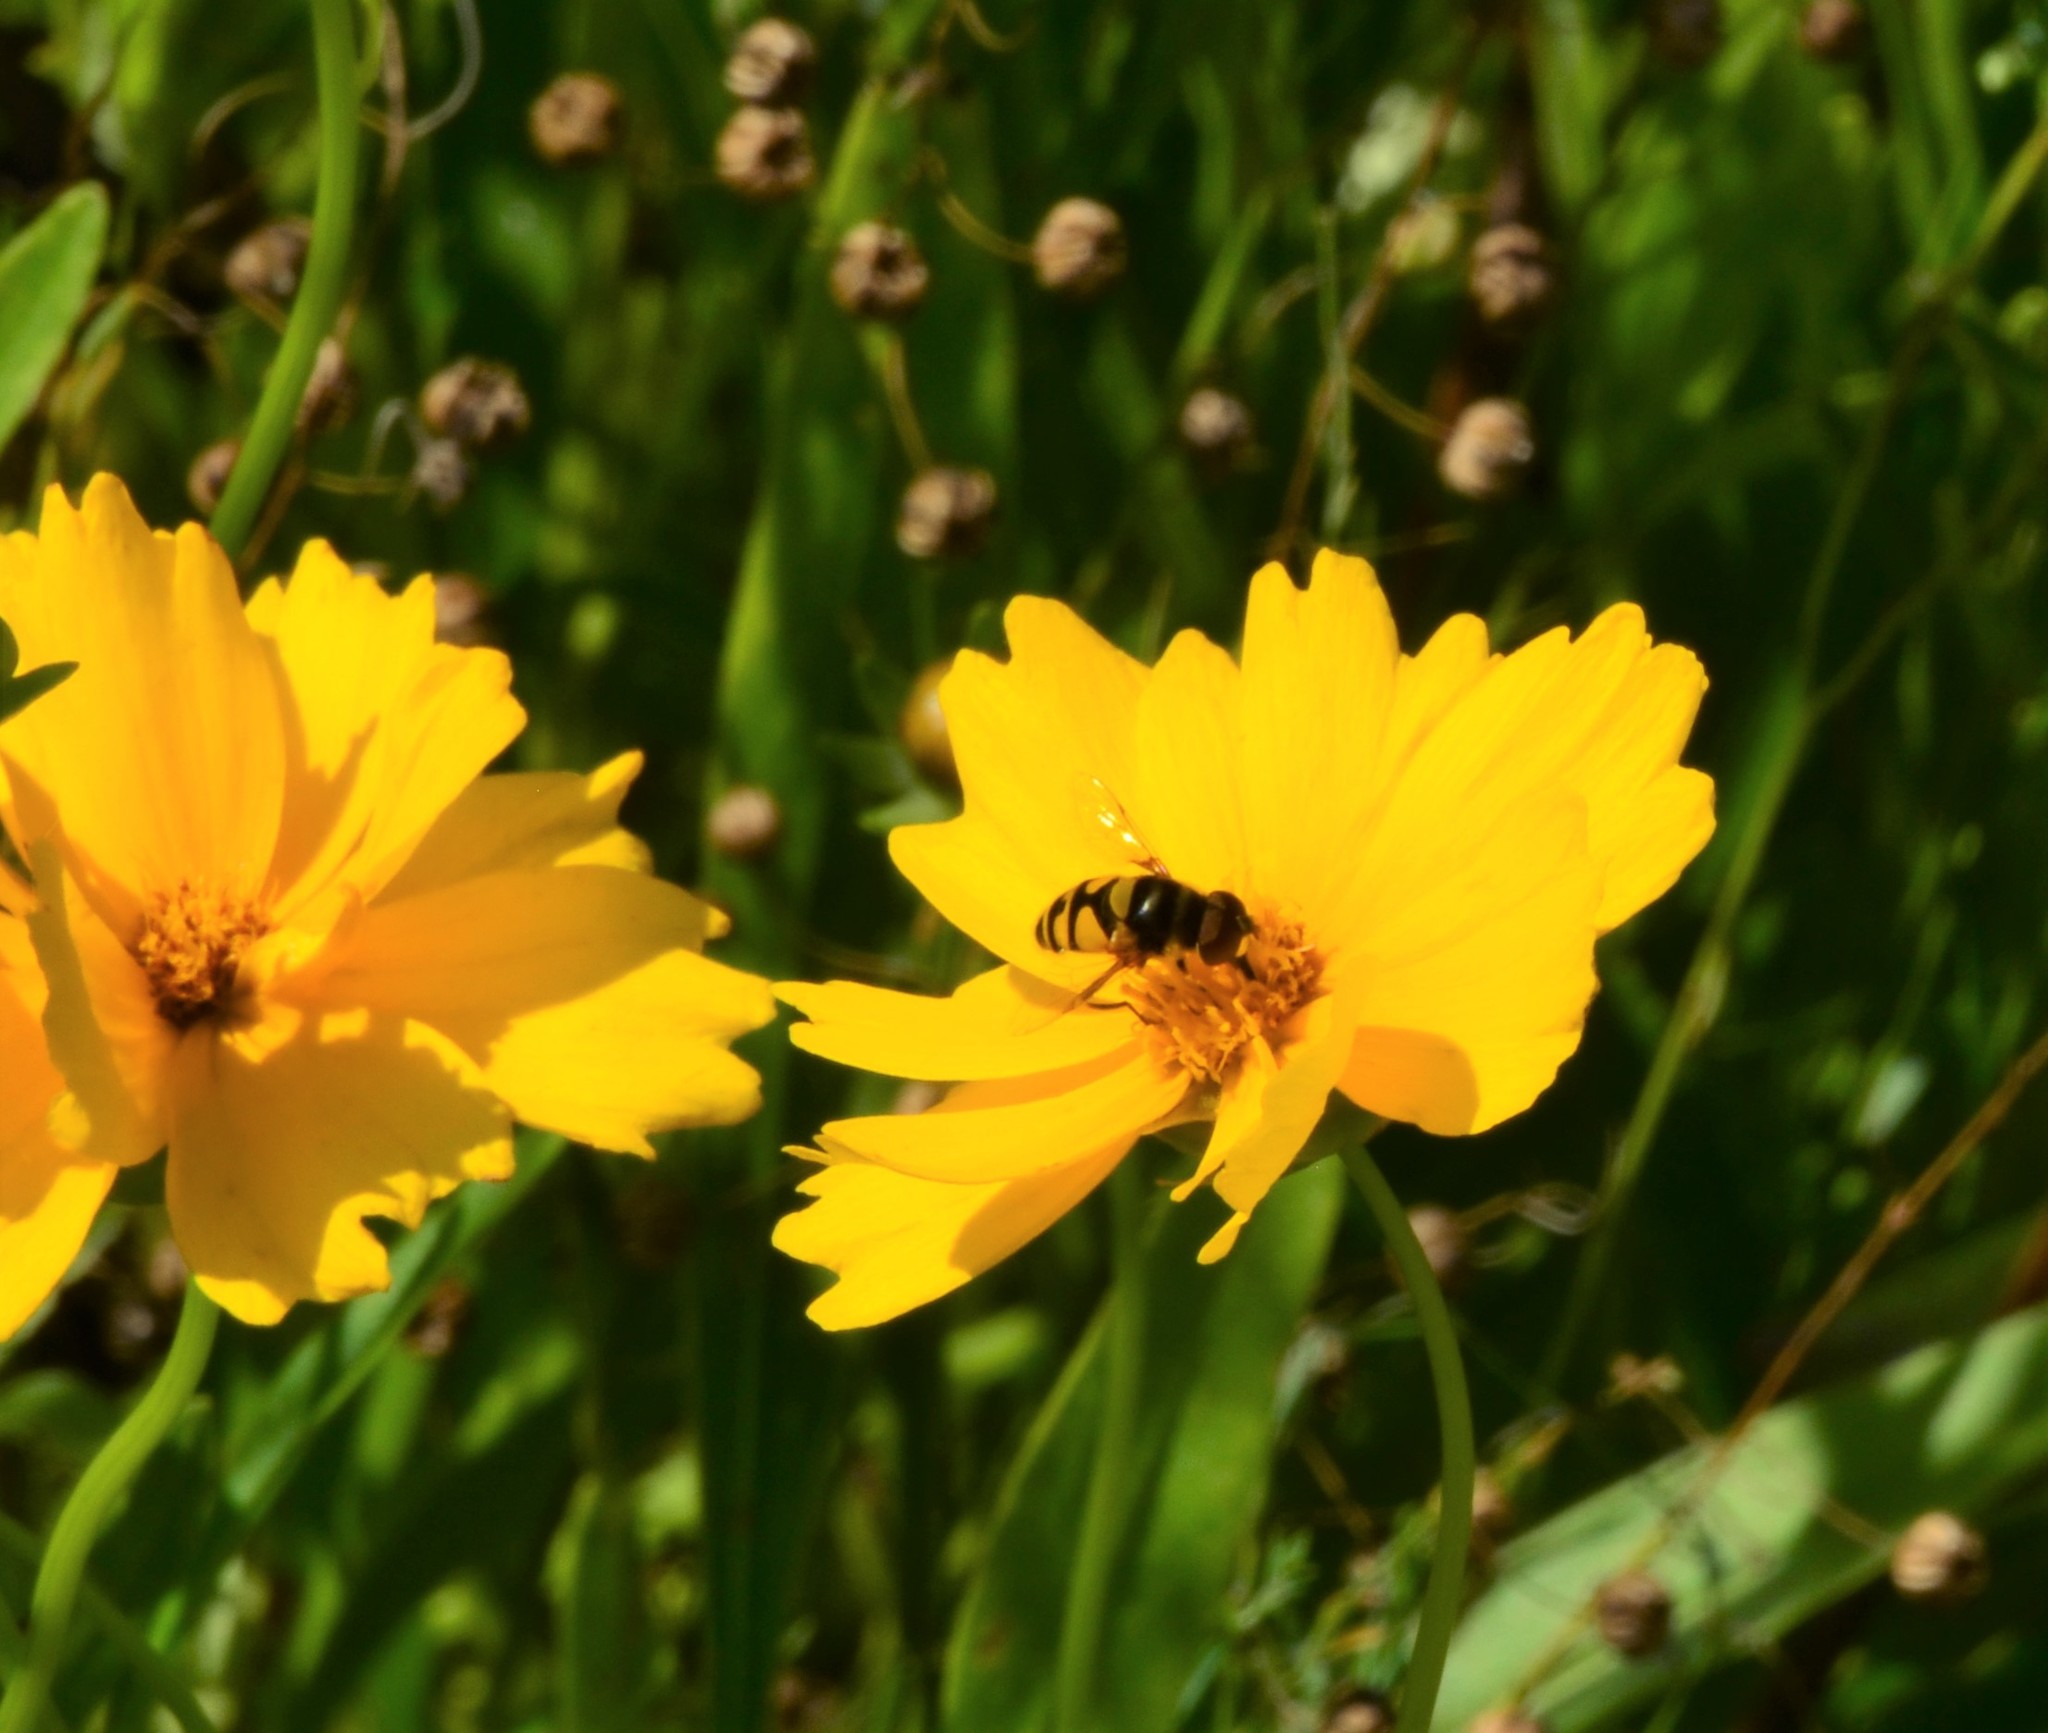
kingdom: Animalia
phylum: Arthropoda
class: Insecta
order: Diptera
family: Syrphidae
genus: Eristalis
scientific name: Eristalis transversa
